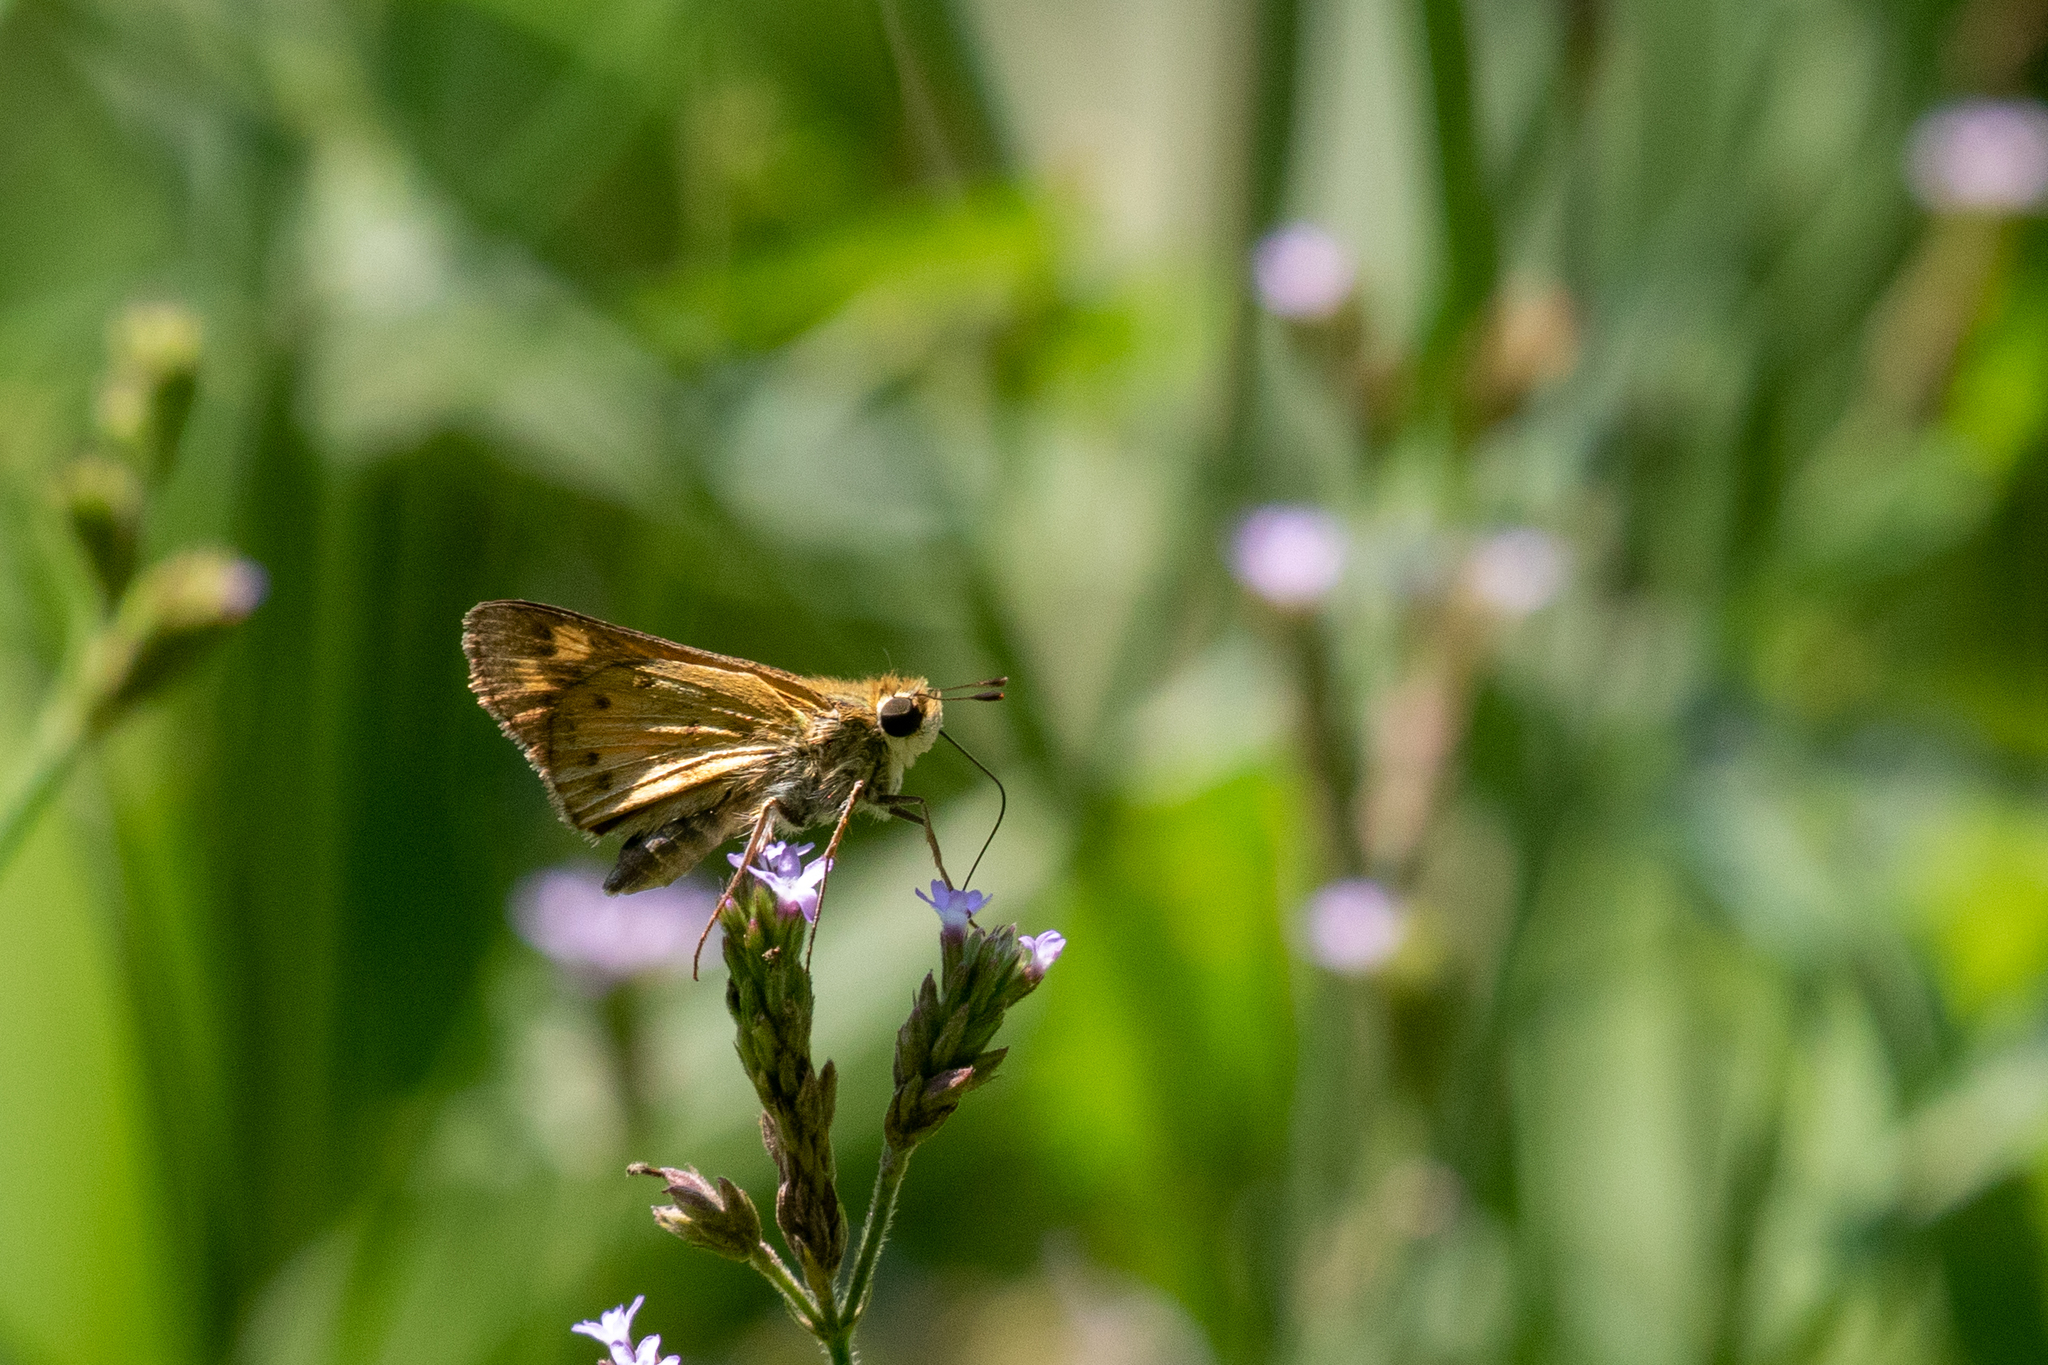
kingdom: Animalia
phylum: Arthropoda
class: Insecta
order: Lepidoptera
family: Hesperiidae
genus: Hylephila
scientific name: Hylephila phyleus
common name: Fiery skipper
